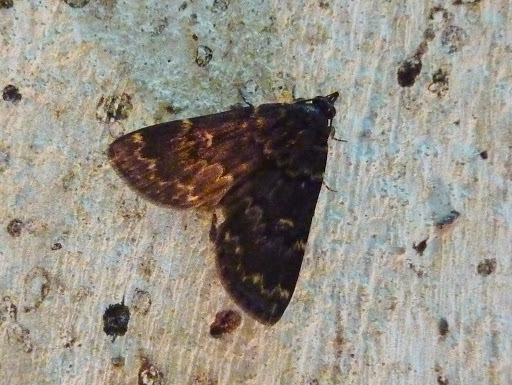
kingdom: Animalia
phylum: Arthropoda
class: Insecta
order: Lepidoptera
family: Erebidae
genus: Idia
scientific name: Idia lubricalis
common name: Twin-striped tabby
